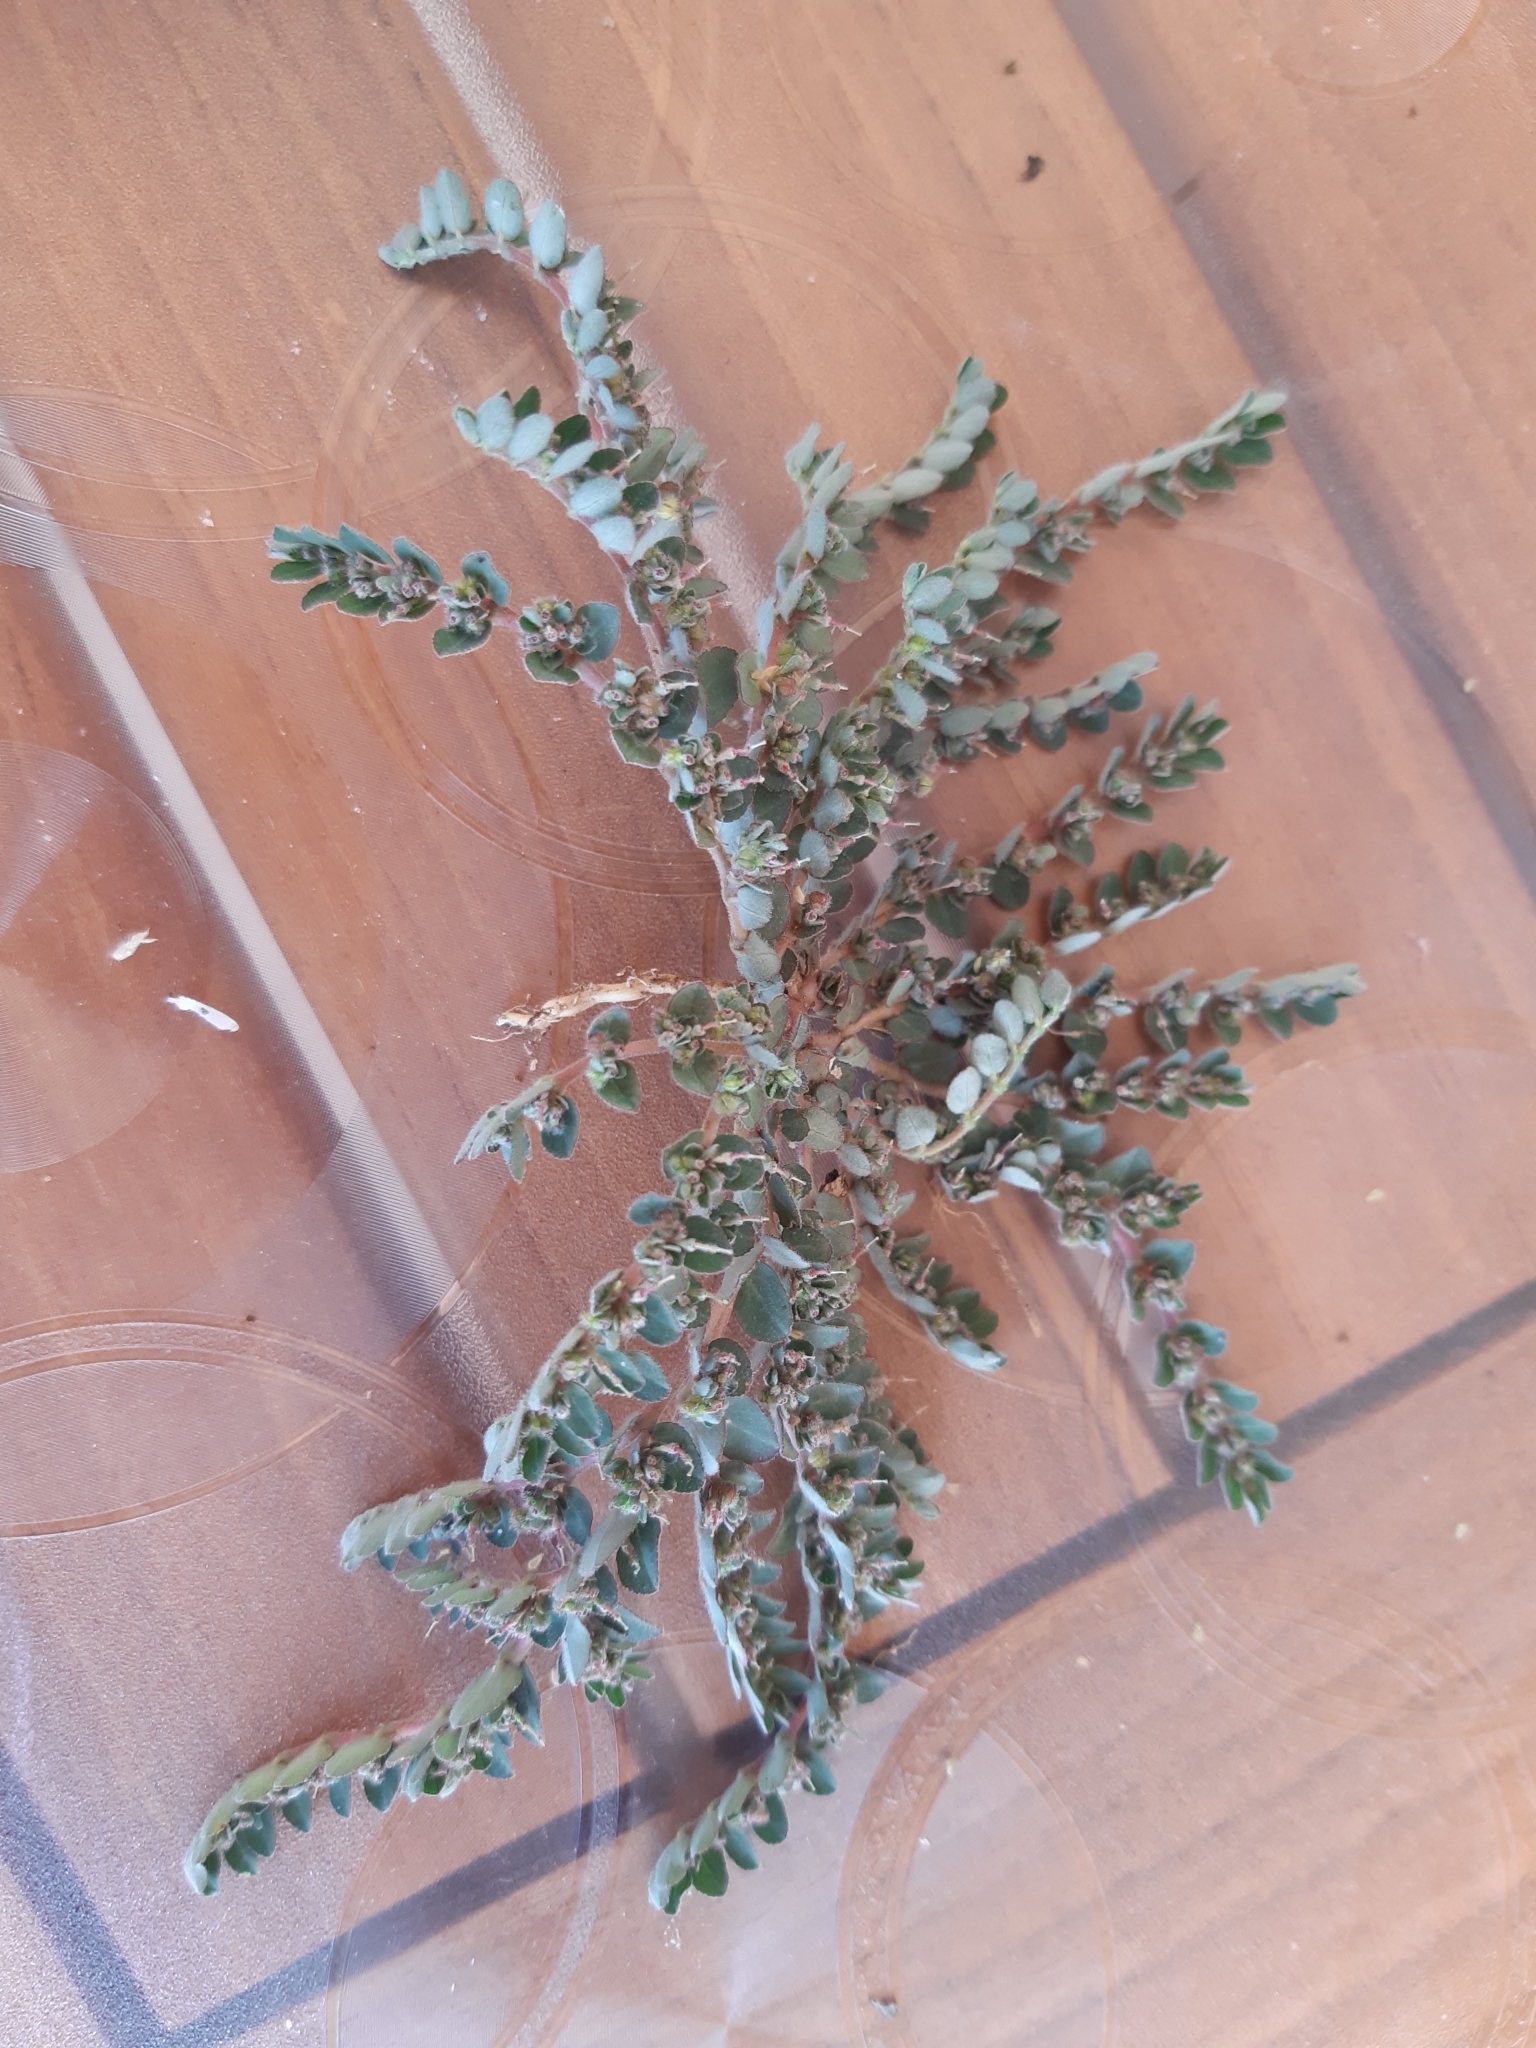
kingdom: Plantae
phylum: Tracheophyta
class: Magnoliopsida
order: Malpighiales
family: Euphorbiaceae
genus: Euphorbia
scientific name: Euphorbia prostrata
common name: Prostrate sandmat
